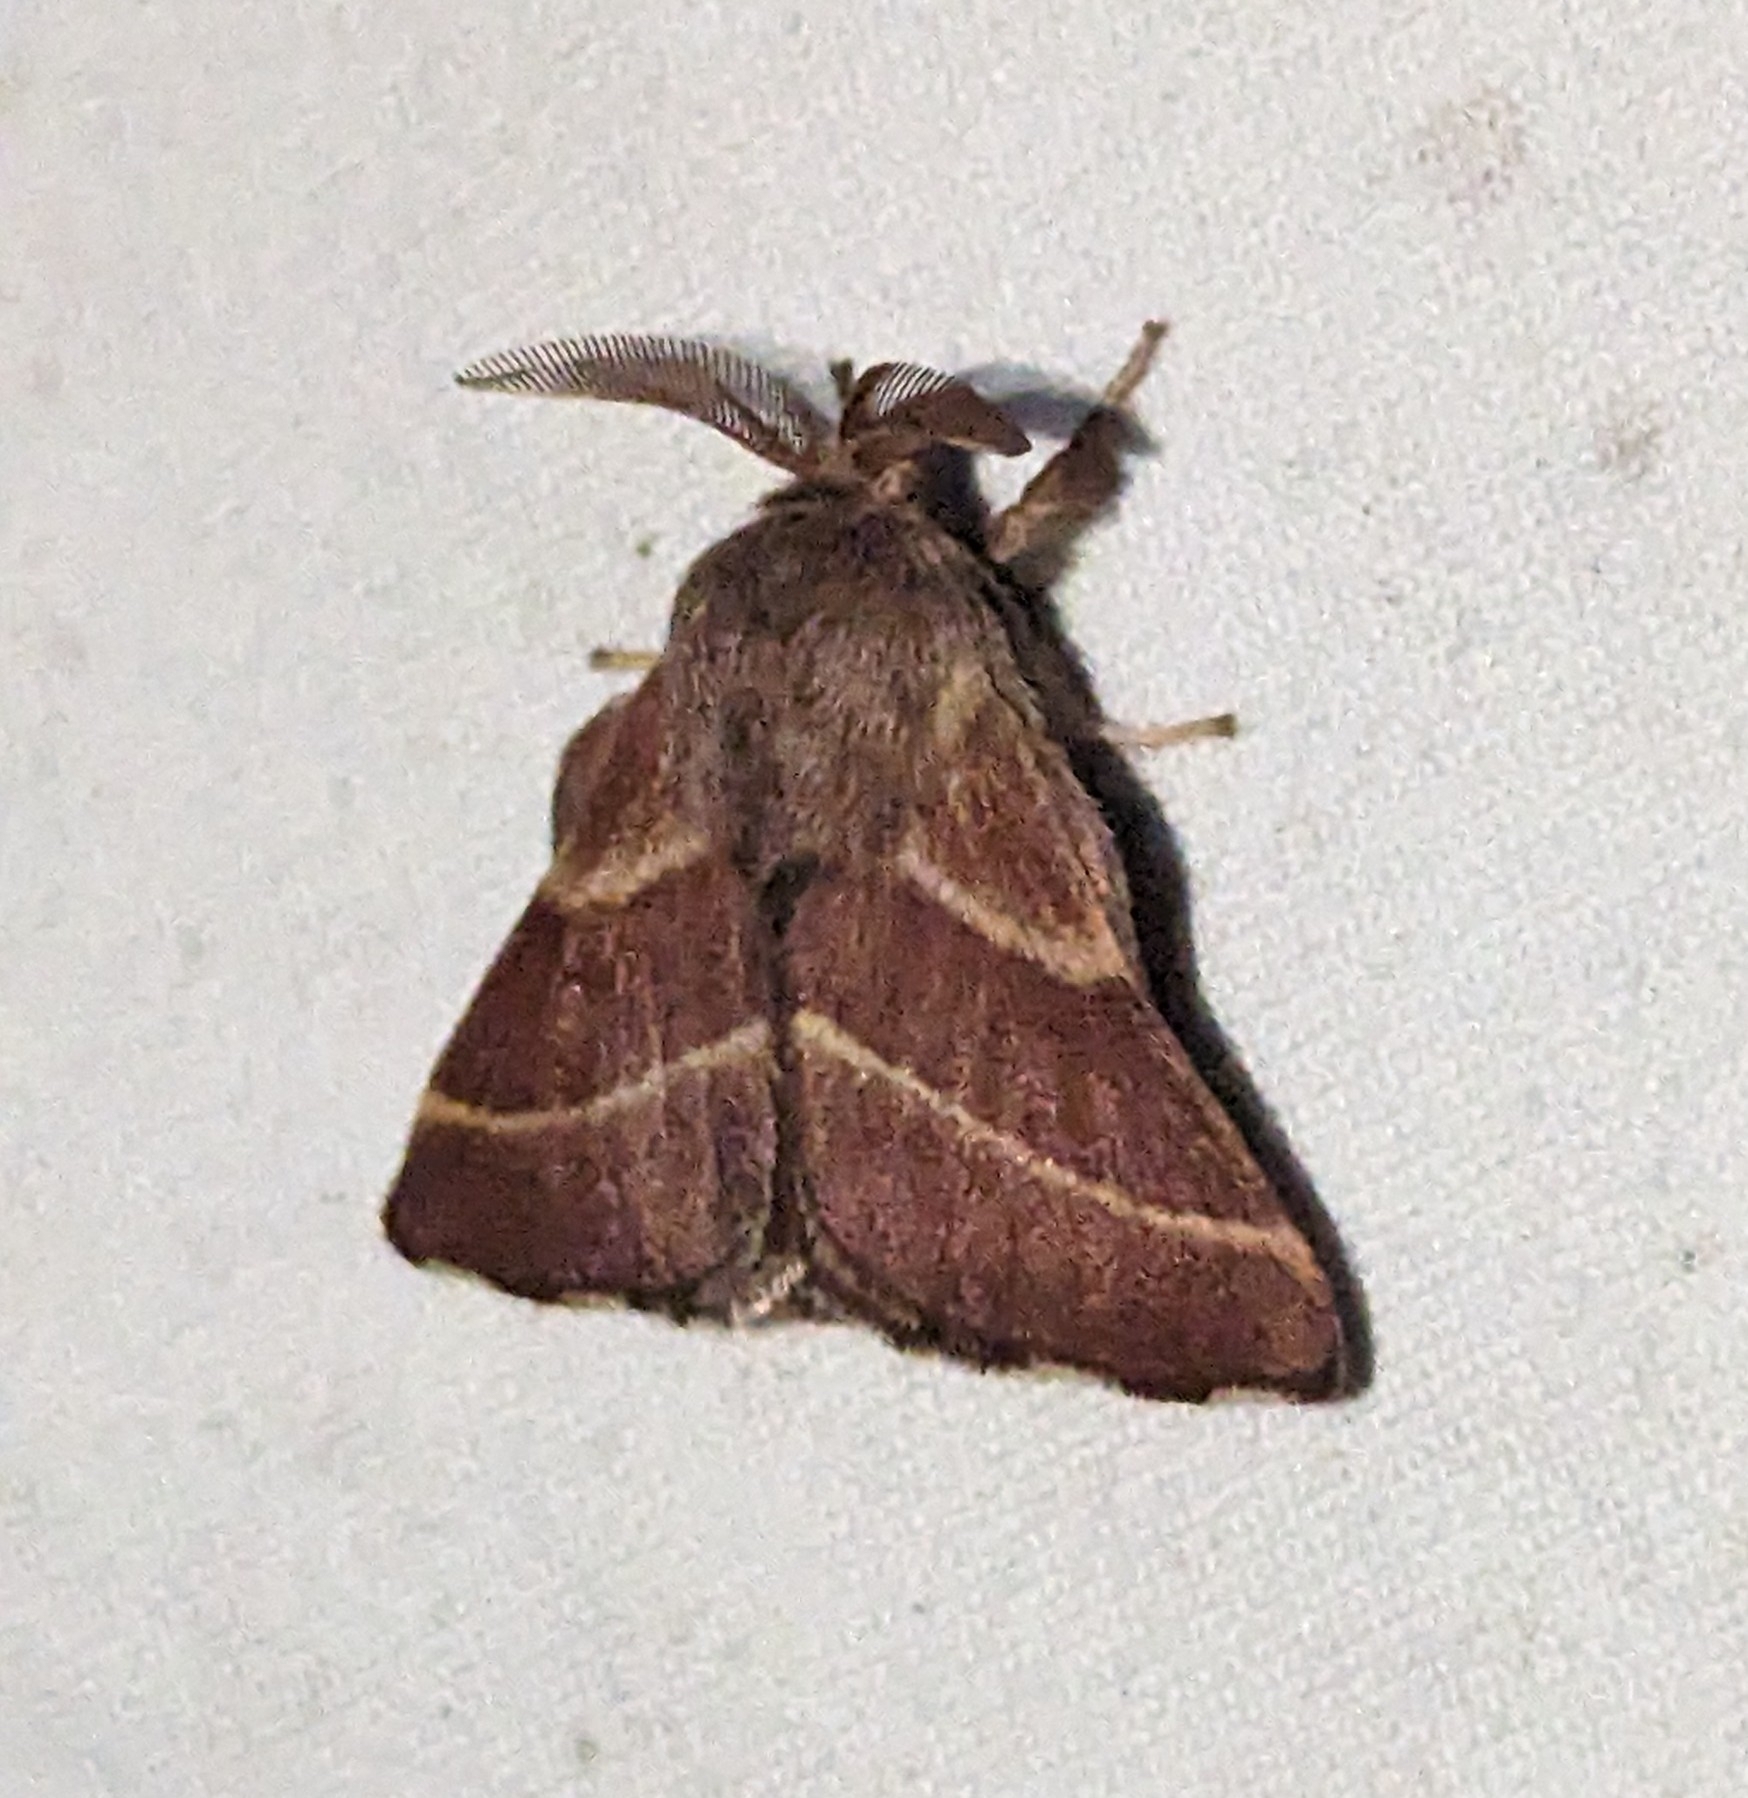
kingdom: Animalia
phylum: Arthropoda
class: Insecta
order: Lepidoptera
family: Lasiocampidae
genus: Malacosoma
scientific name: Malacosoma californica
